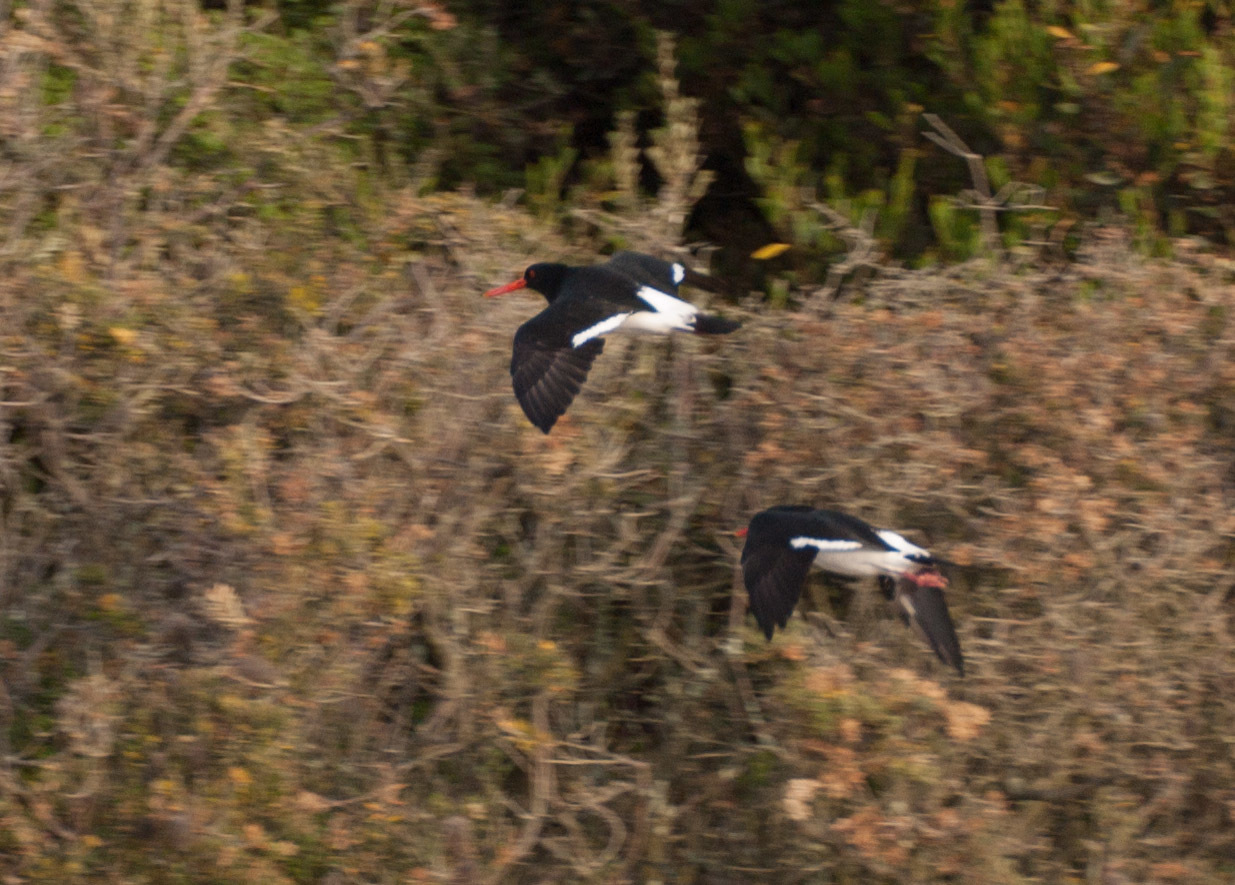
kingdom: Animalia
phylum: Chordata
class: Aves
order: Charadriiformes
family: Haematopodidae
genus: Haematopus
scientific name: Haematopus longirostris
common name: Pied oystercatcher
